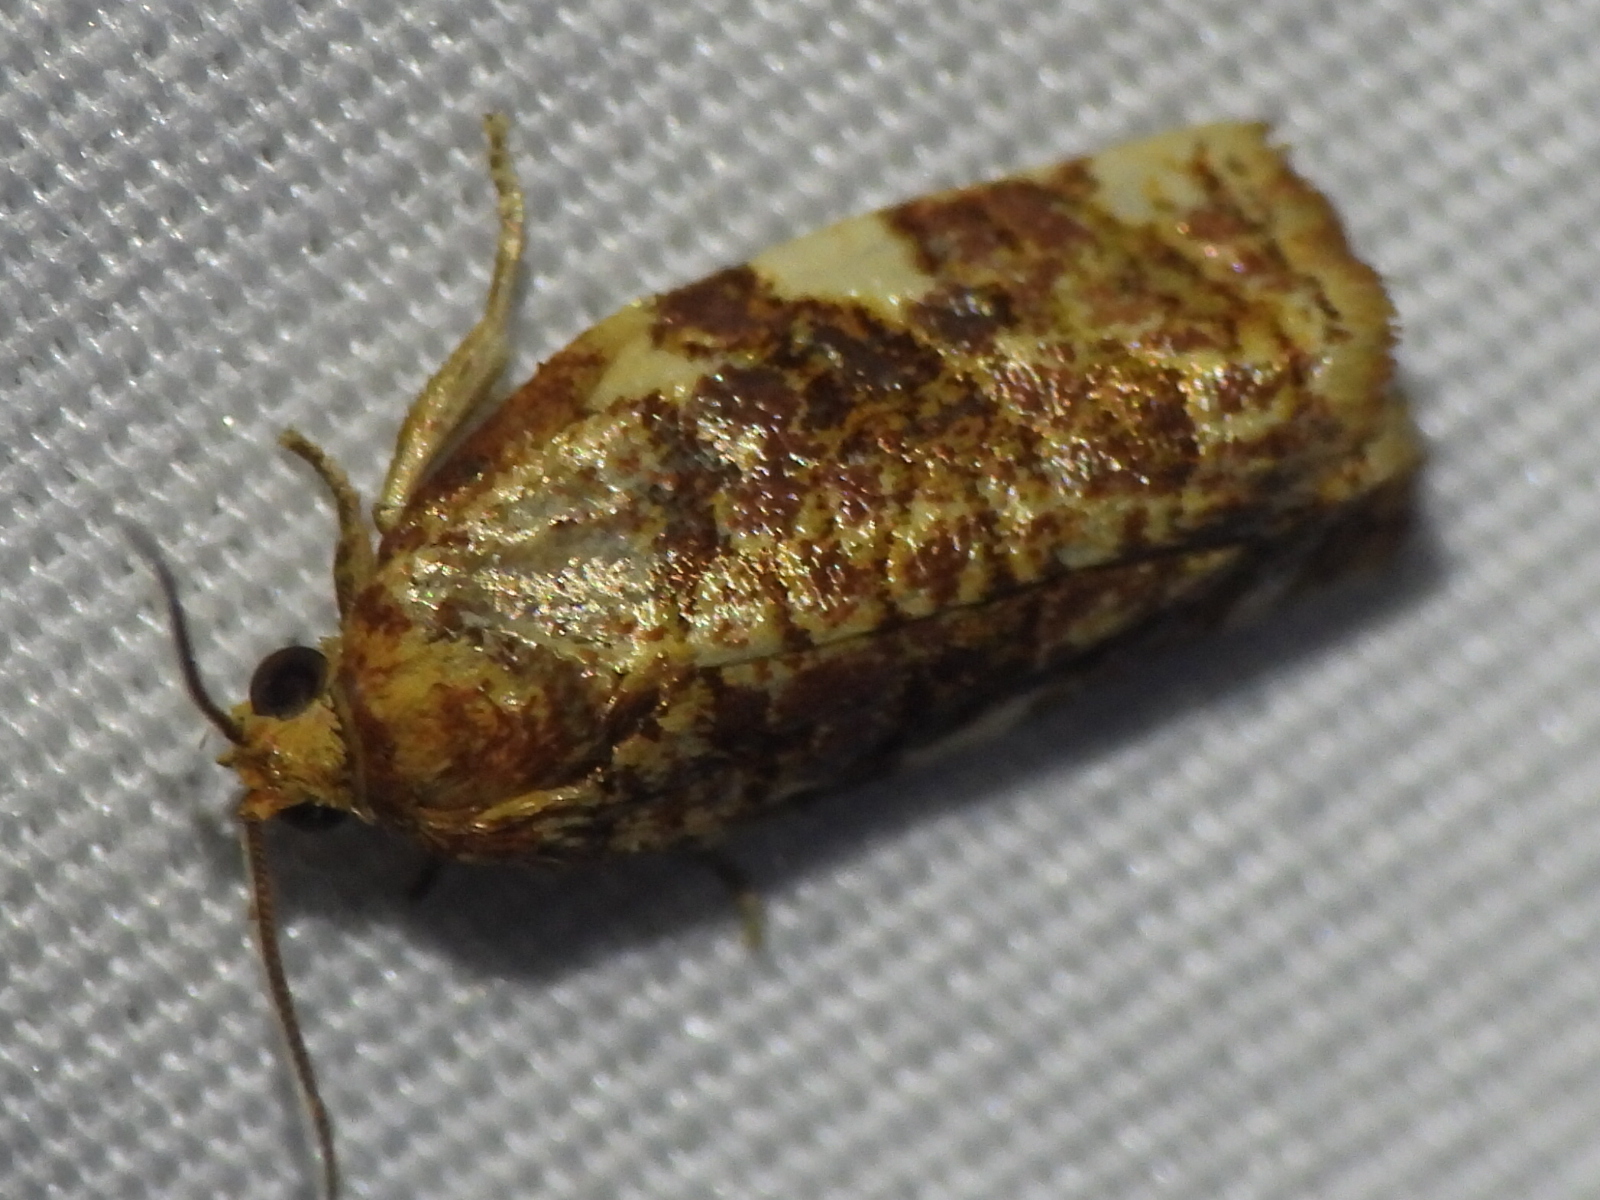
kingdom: Animalia
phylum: Arthropoda
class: Insecta
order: Lepidoptera
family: Tortricidae
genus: Archips
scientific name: Archips argyrospila
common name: Fruit-tree leafroller moth
